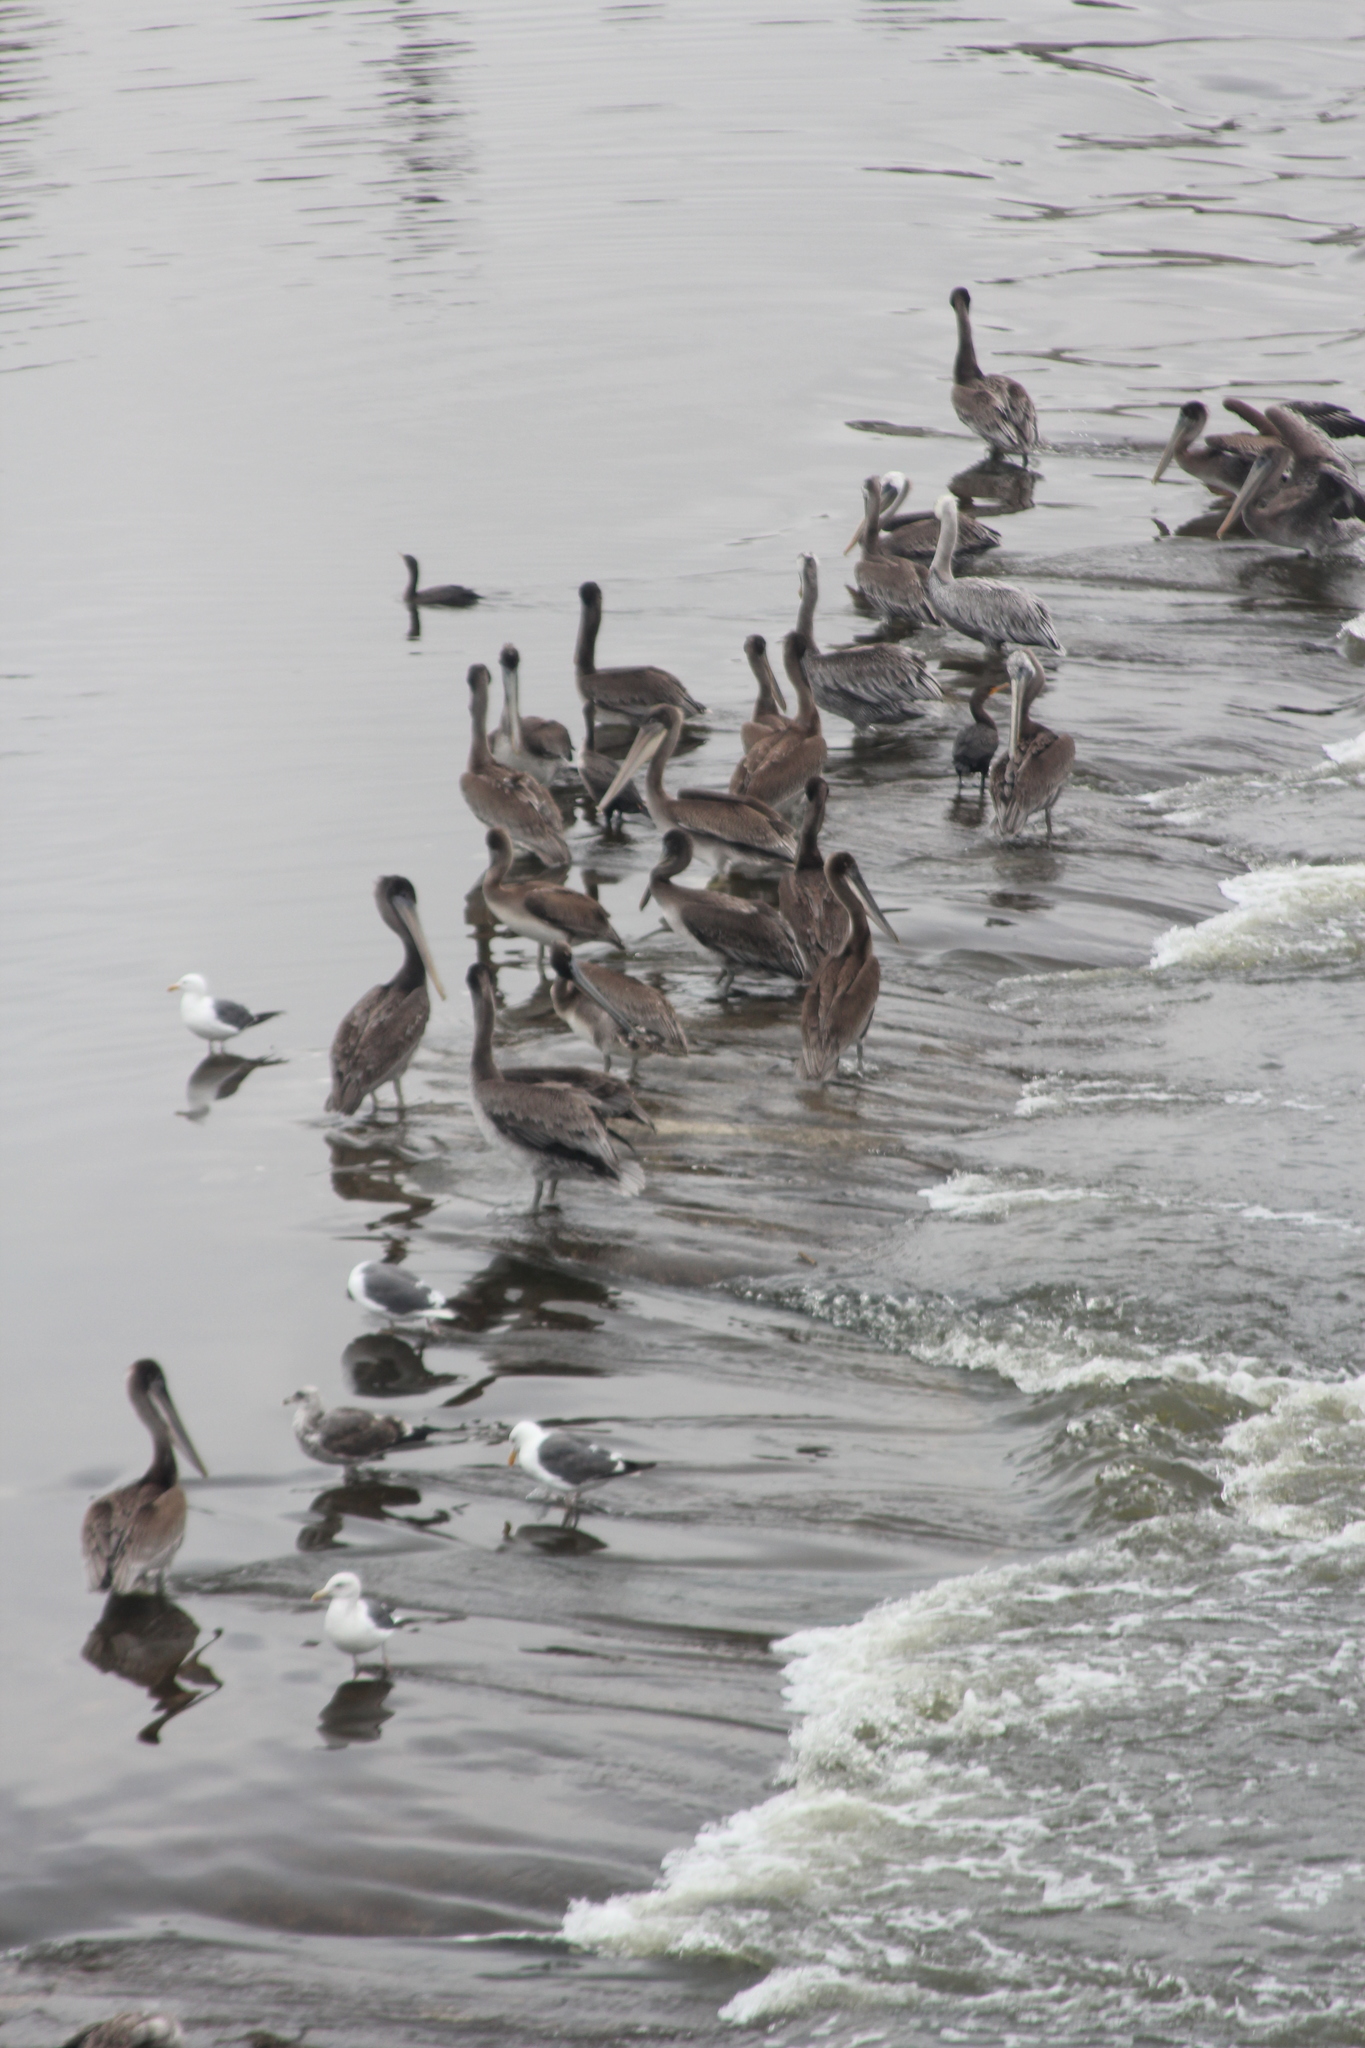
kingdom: Animalia
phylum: Chordata
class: Aves
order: Suliformes
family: Phalacrocoracidae
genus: Phalacrocorax
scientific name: Phalacrocorax auritus
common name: Double-crested cormorant
